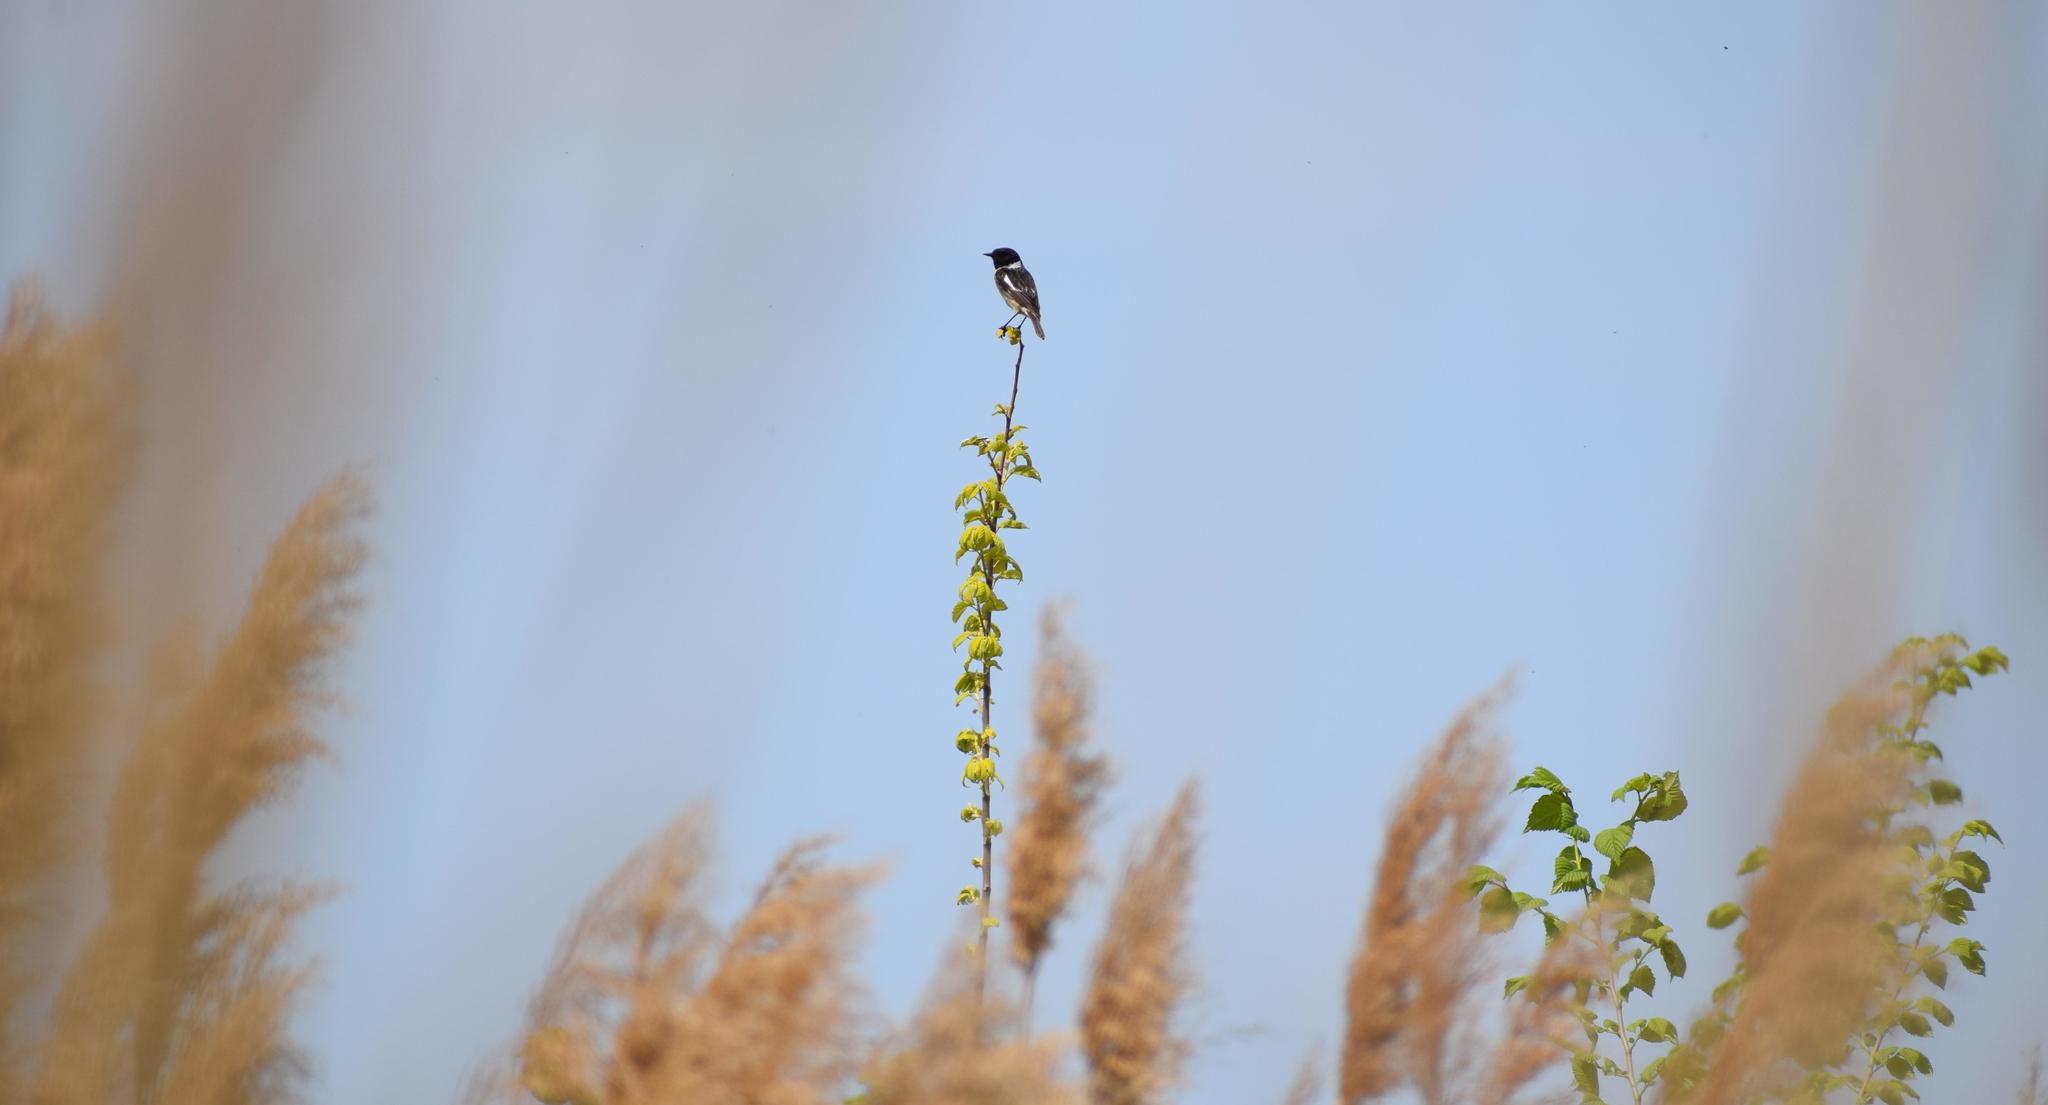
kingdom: Animalia
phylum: Chordata
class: Aves
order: Passeriformes
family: Muscicapidae
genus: Saxicola
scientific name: Saxicola rubicola
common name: European stonechat
